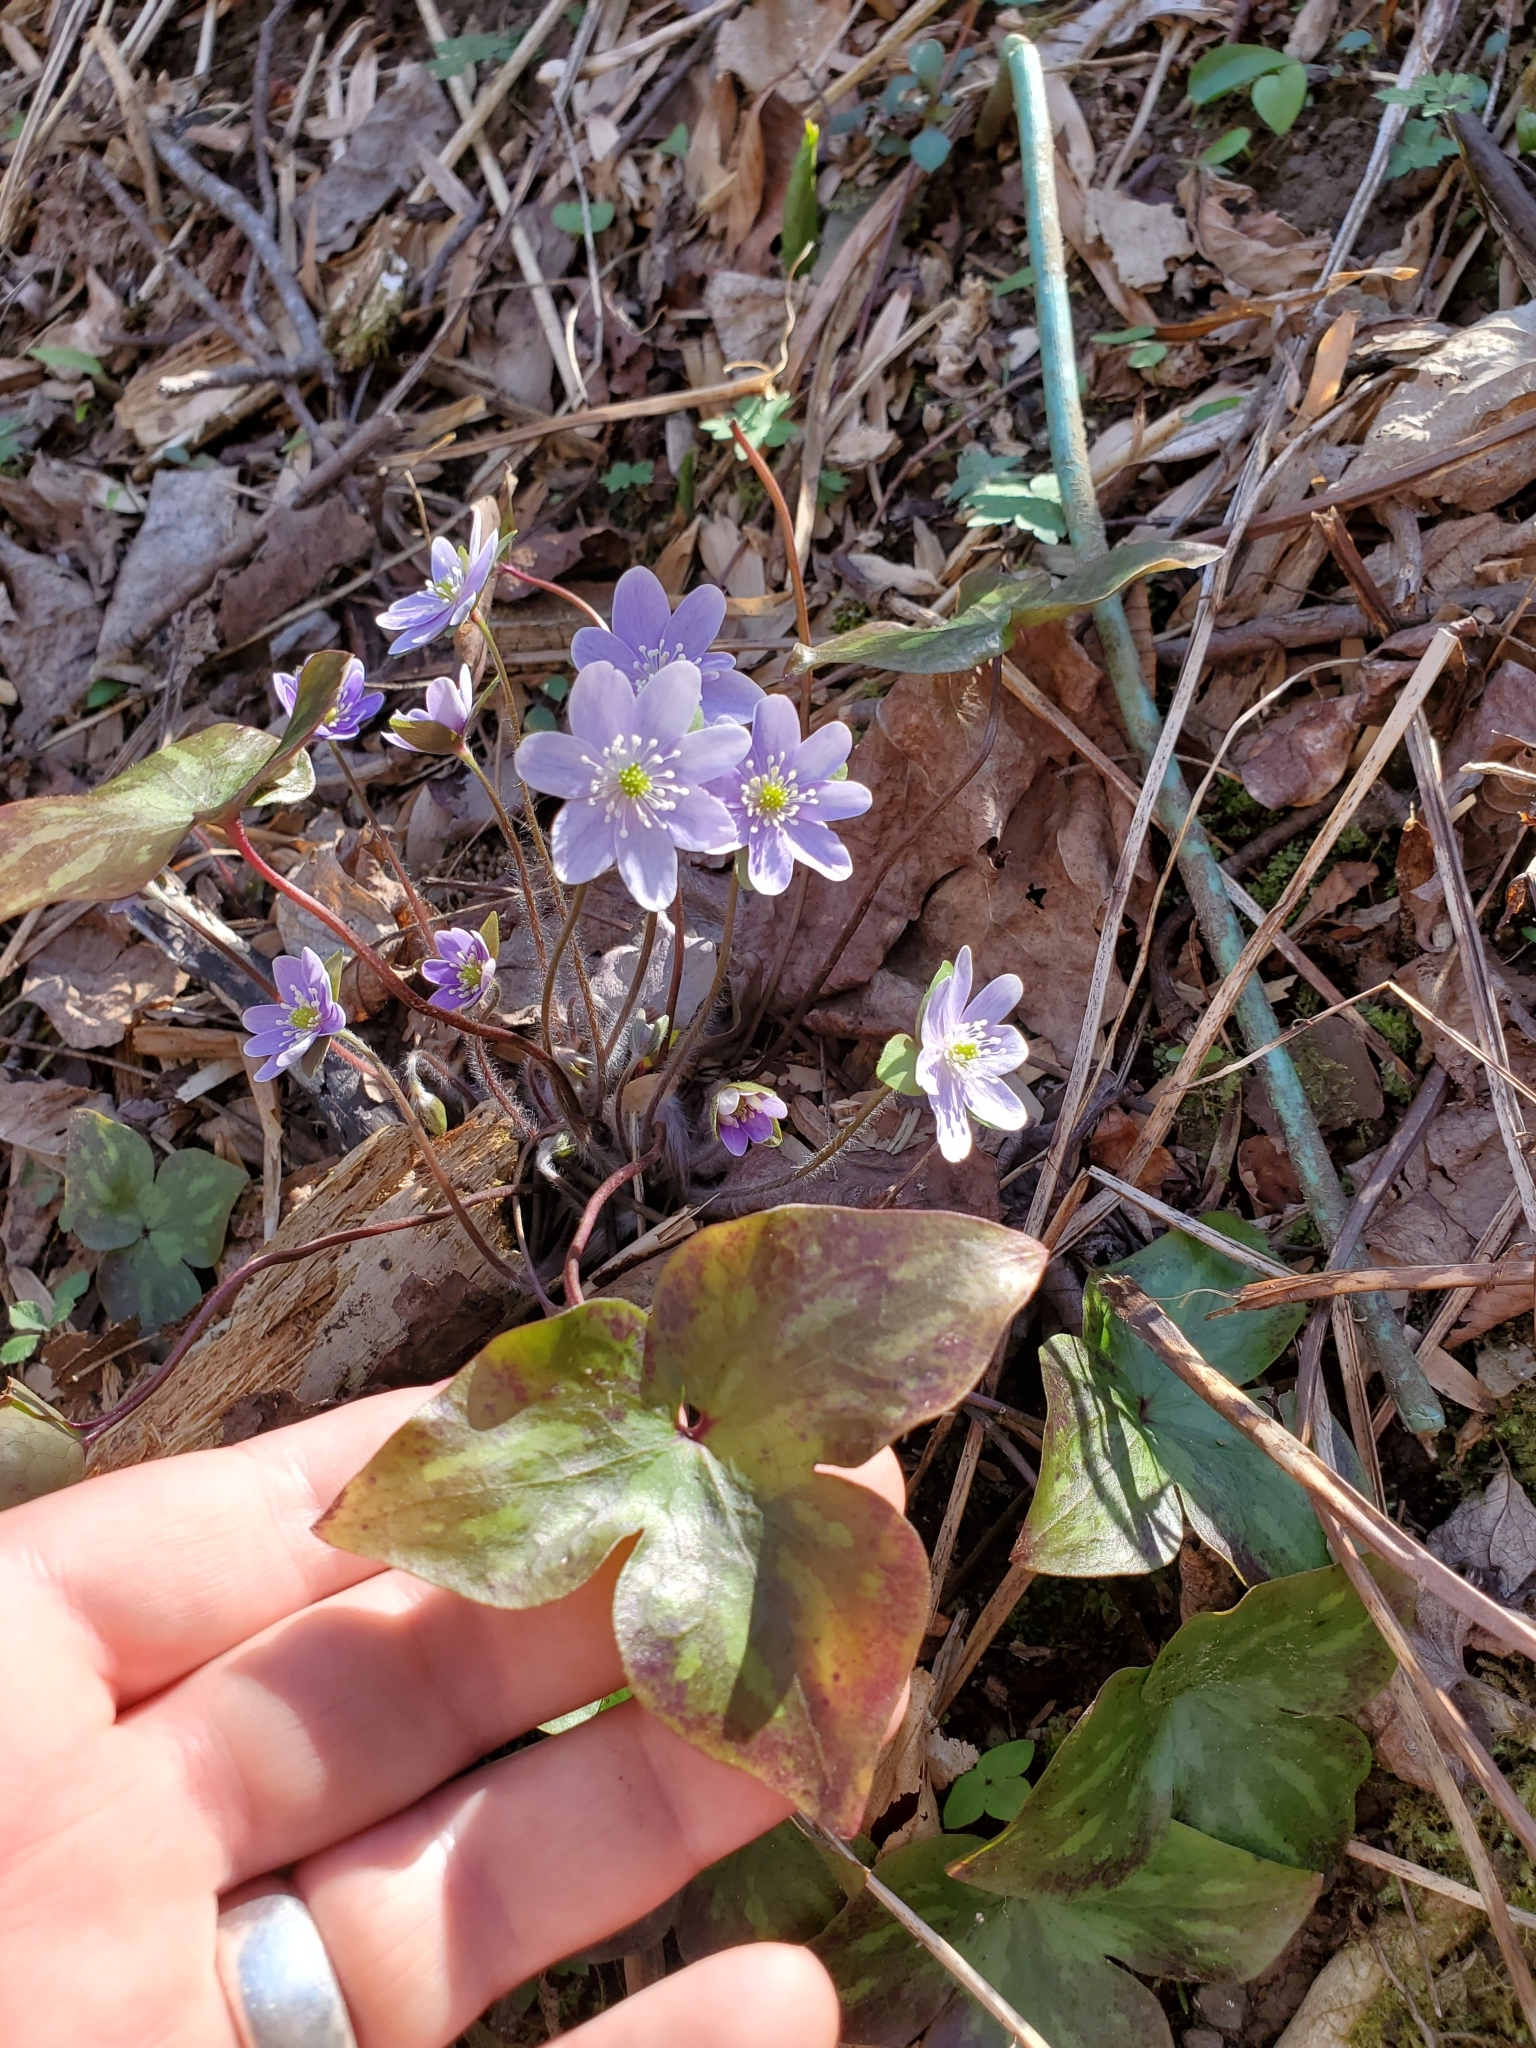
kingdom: Plantae
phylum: Tracheophyta
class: Magnoliopsida
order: Ranunculales
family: Ranunculaceae
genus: Hepatica
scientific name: Hepatica acutiloba
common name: Sharp-lobed hepatica
